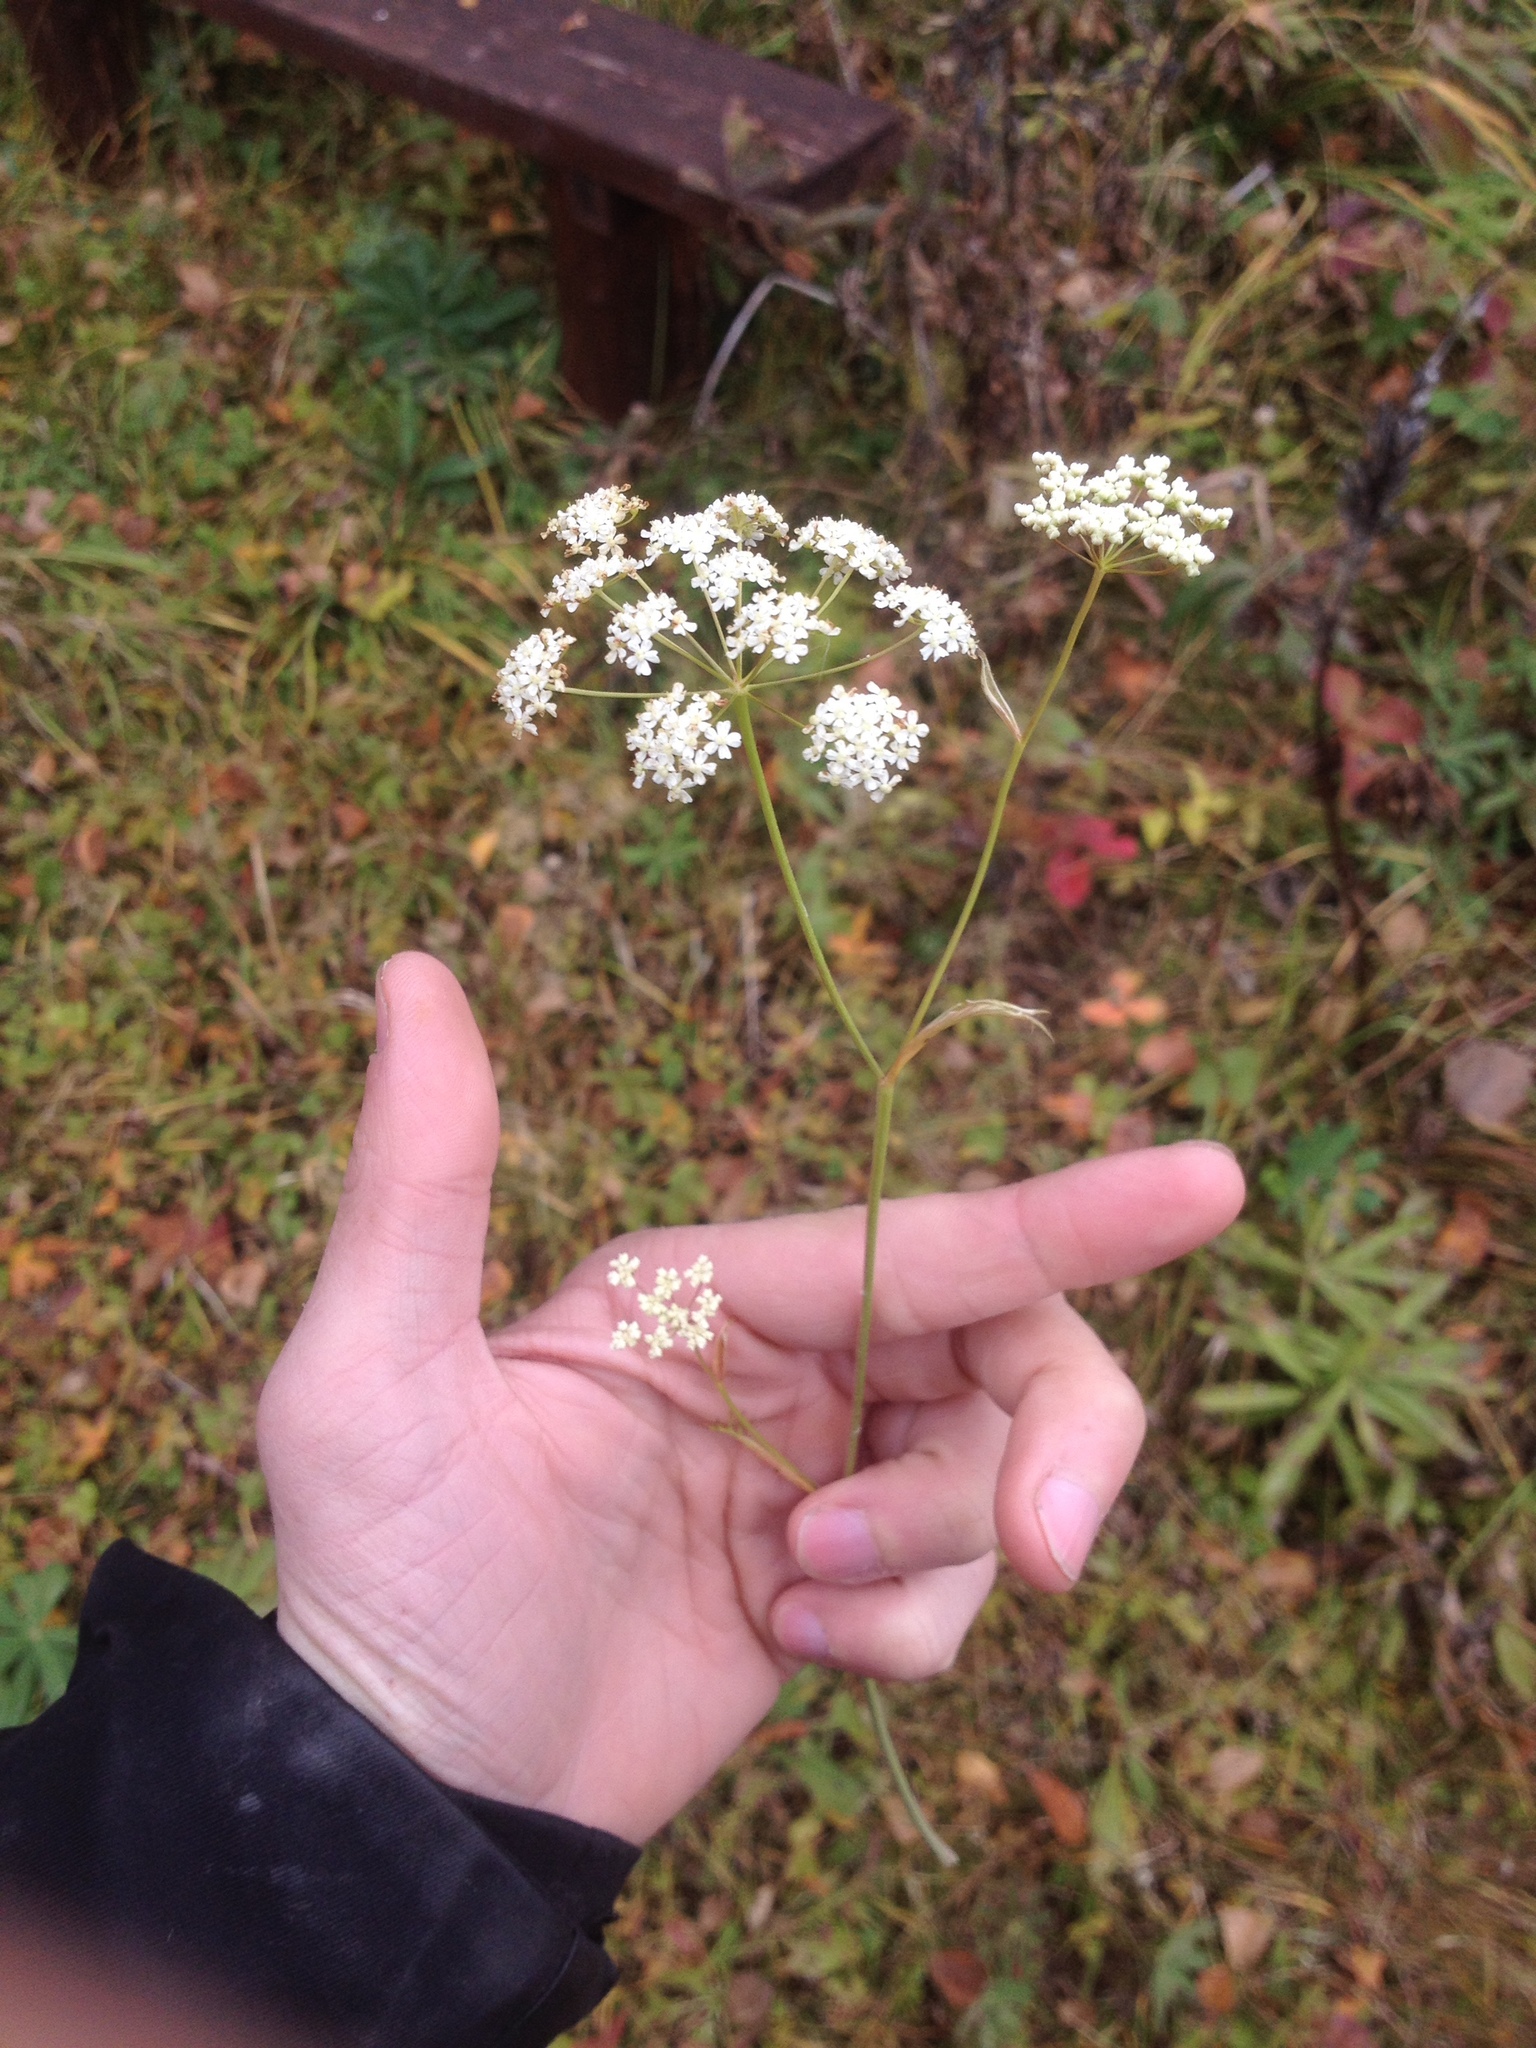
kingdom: Plantae
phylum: Tracheophyta
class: Magnoliopsida
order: Apiales
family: Apiaceae
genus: Pimpinella
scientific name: Pimpinella saxifraga
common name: Burnet-saxifrage
